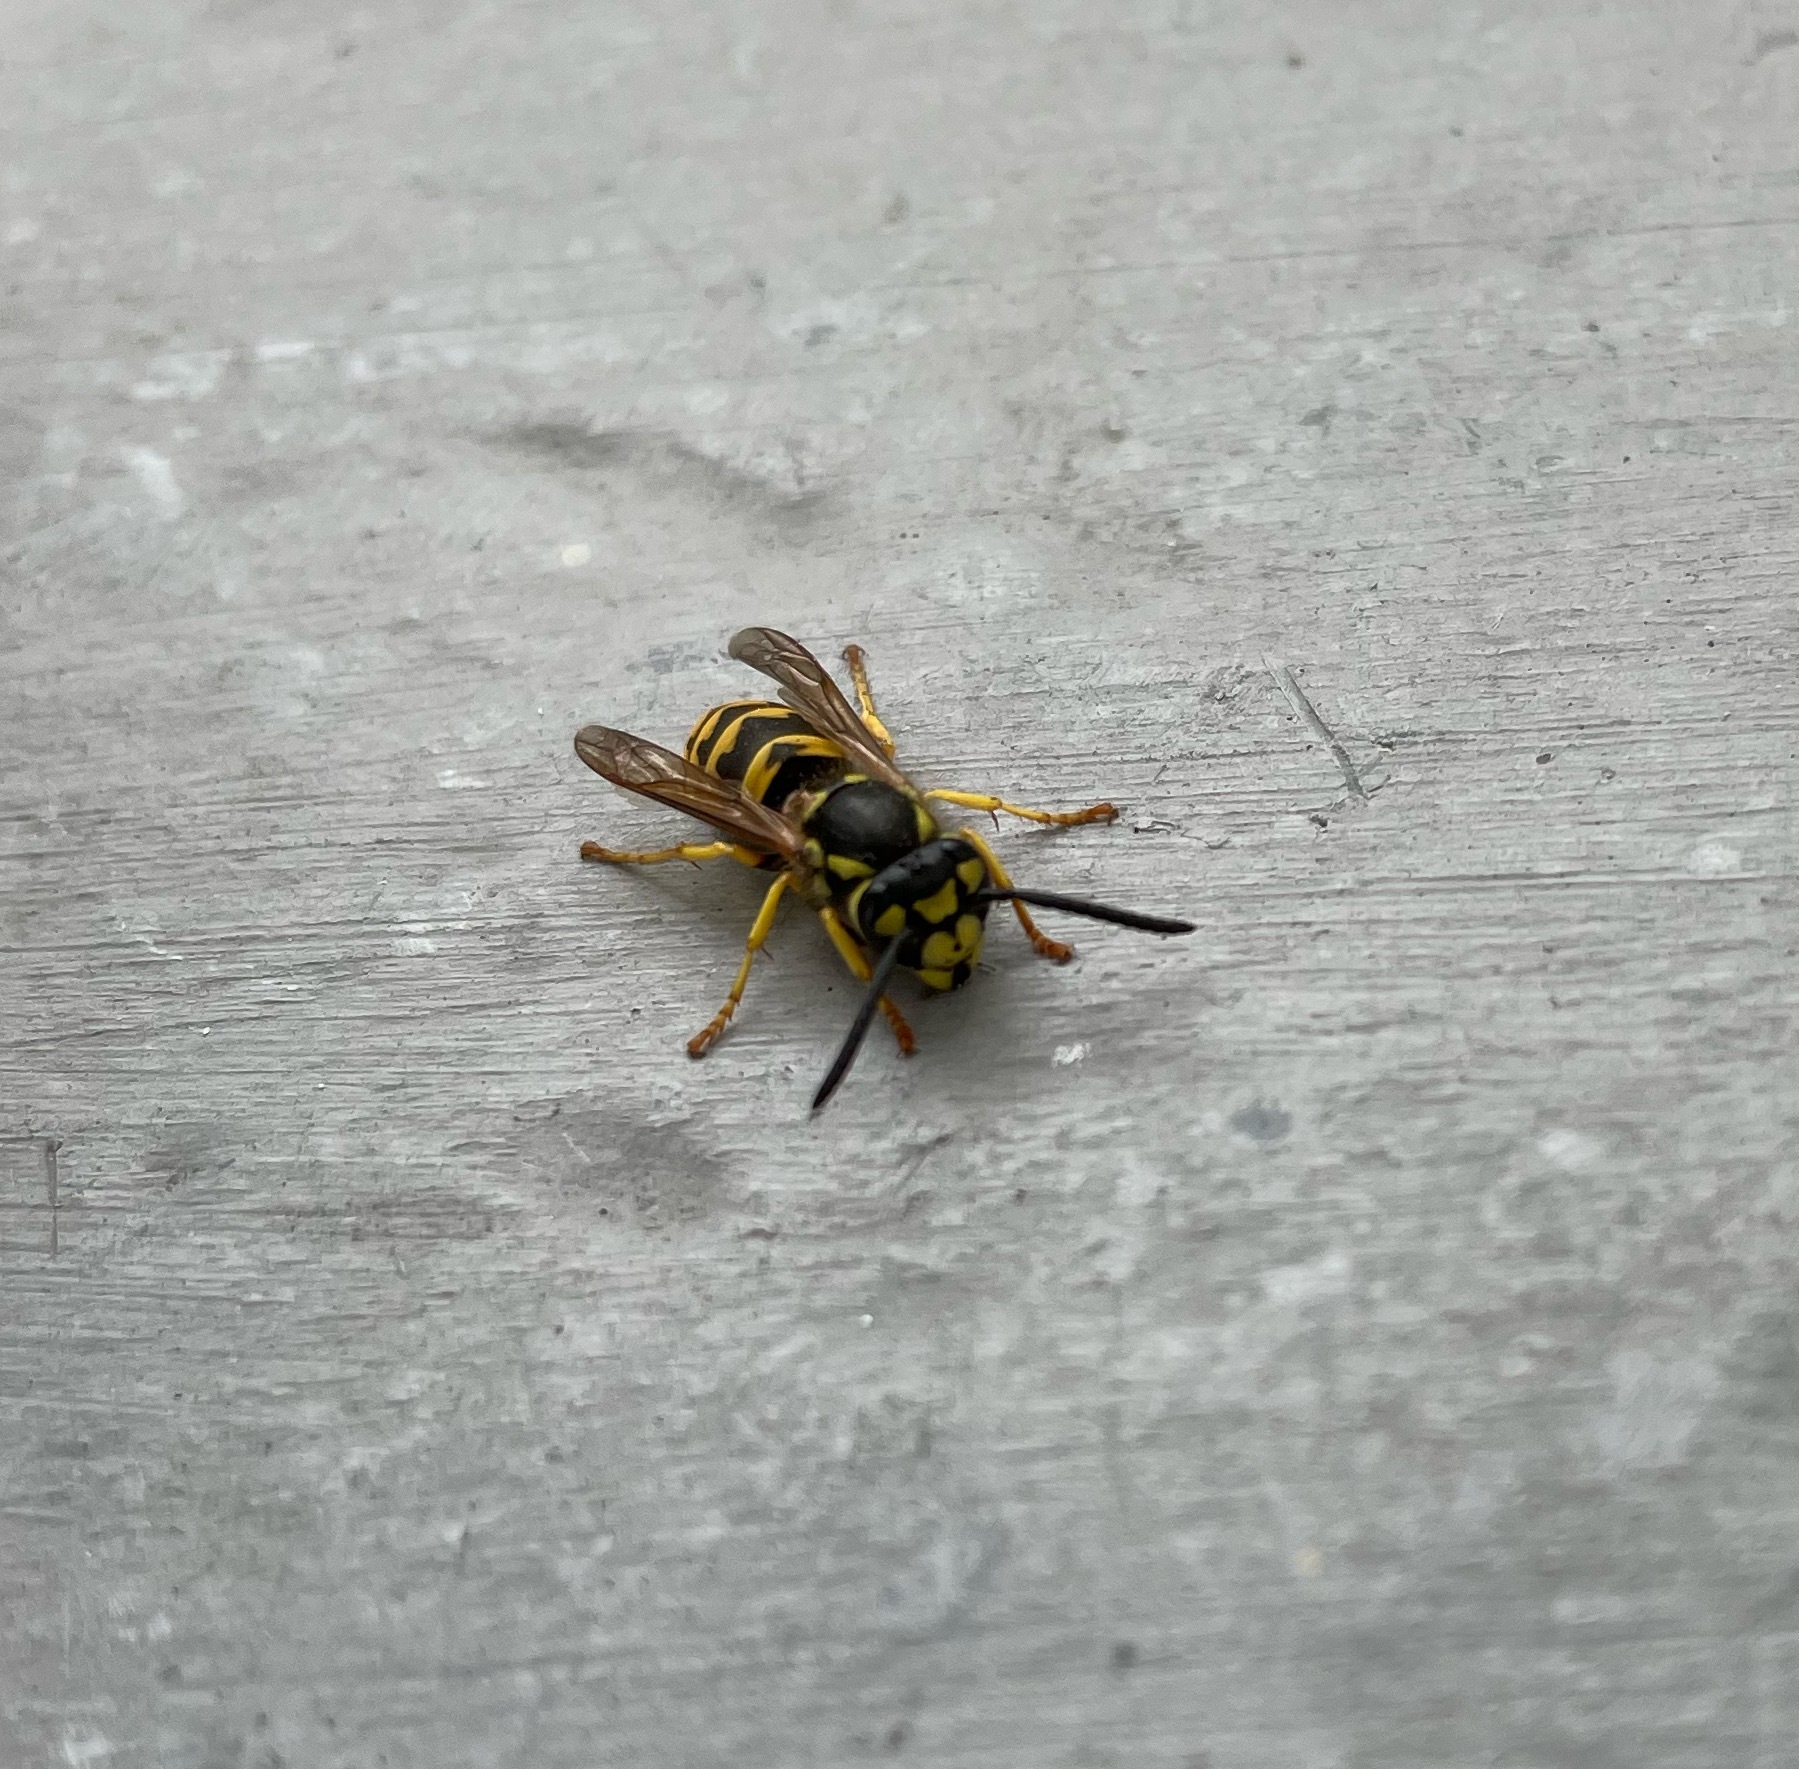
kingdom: Animalia
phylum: Arthropoda
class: Insecta
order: Hymenoptera
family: Vespidae
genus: Vespula
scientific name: Vespula germanica
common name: German wasp
